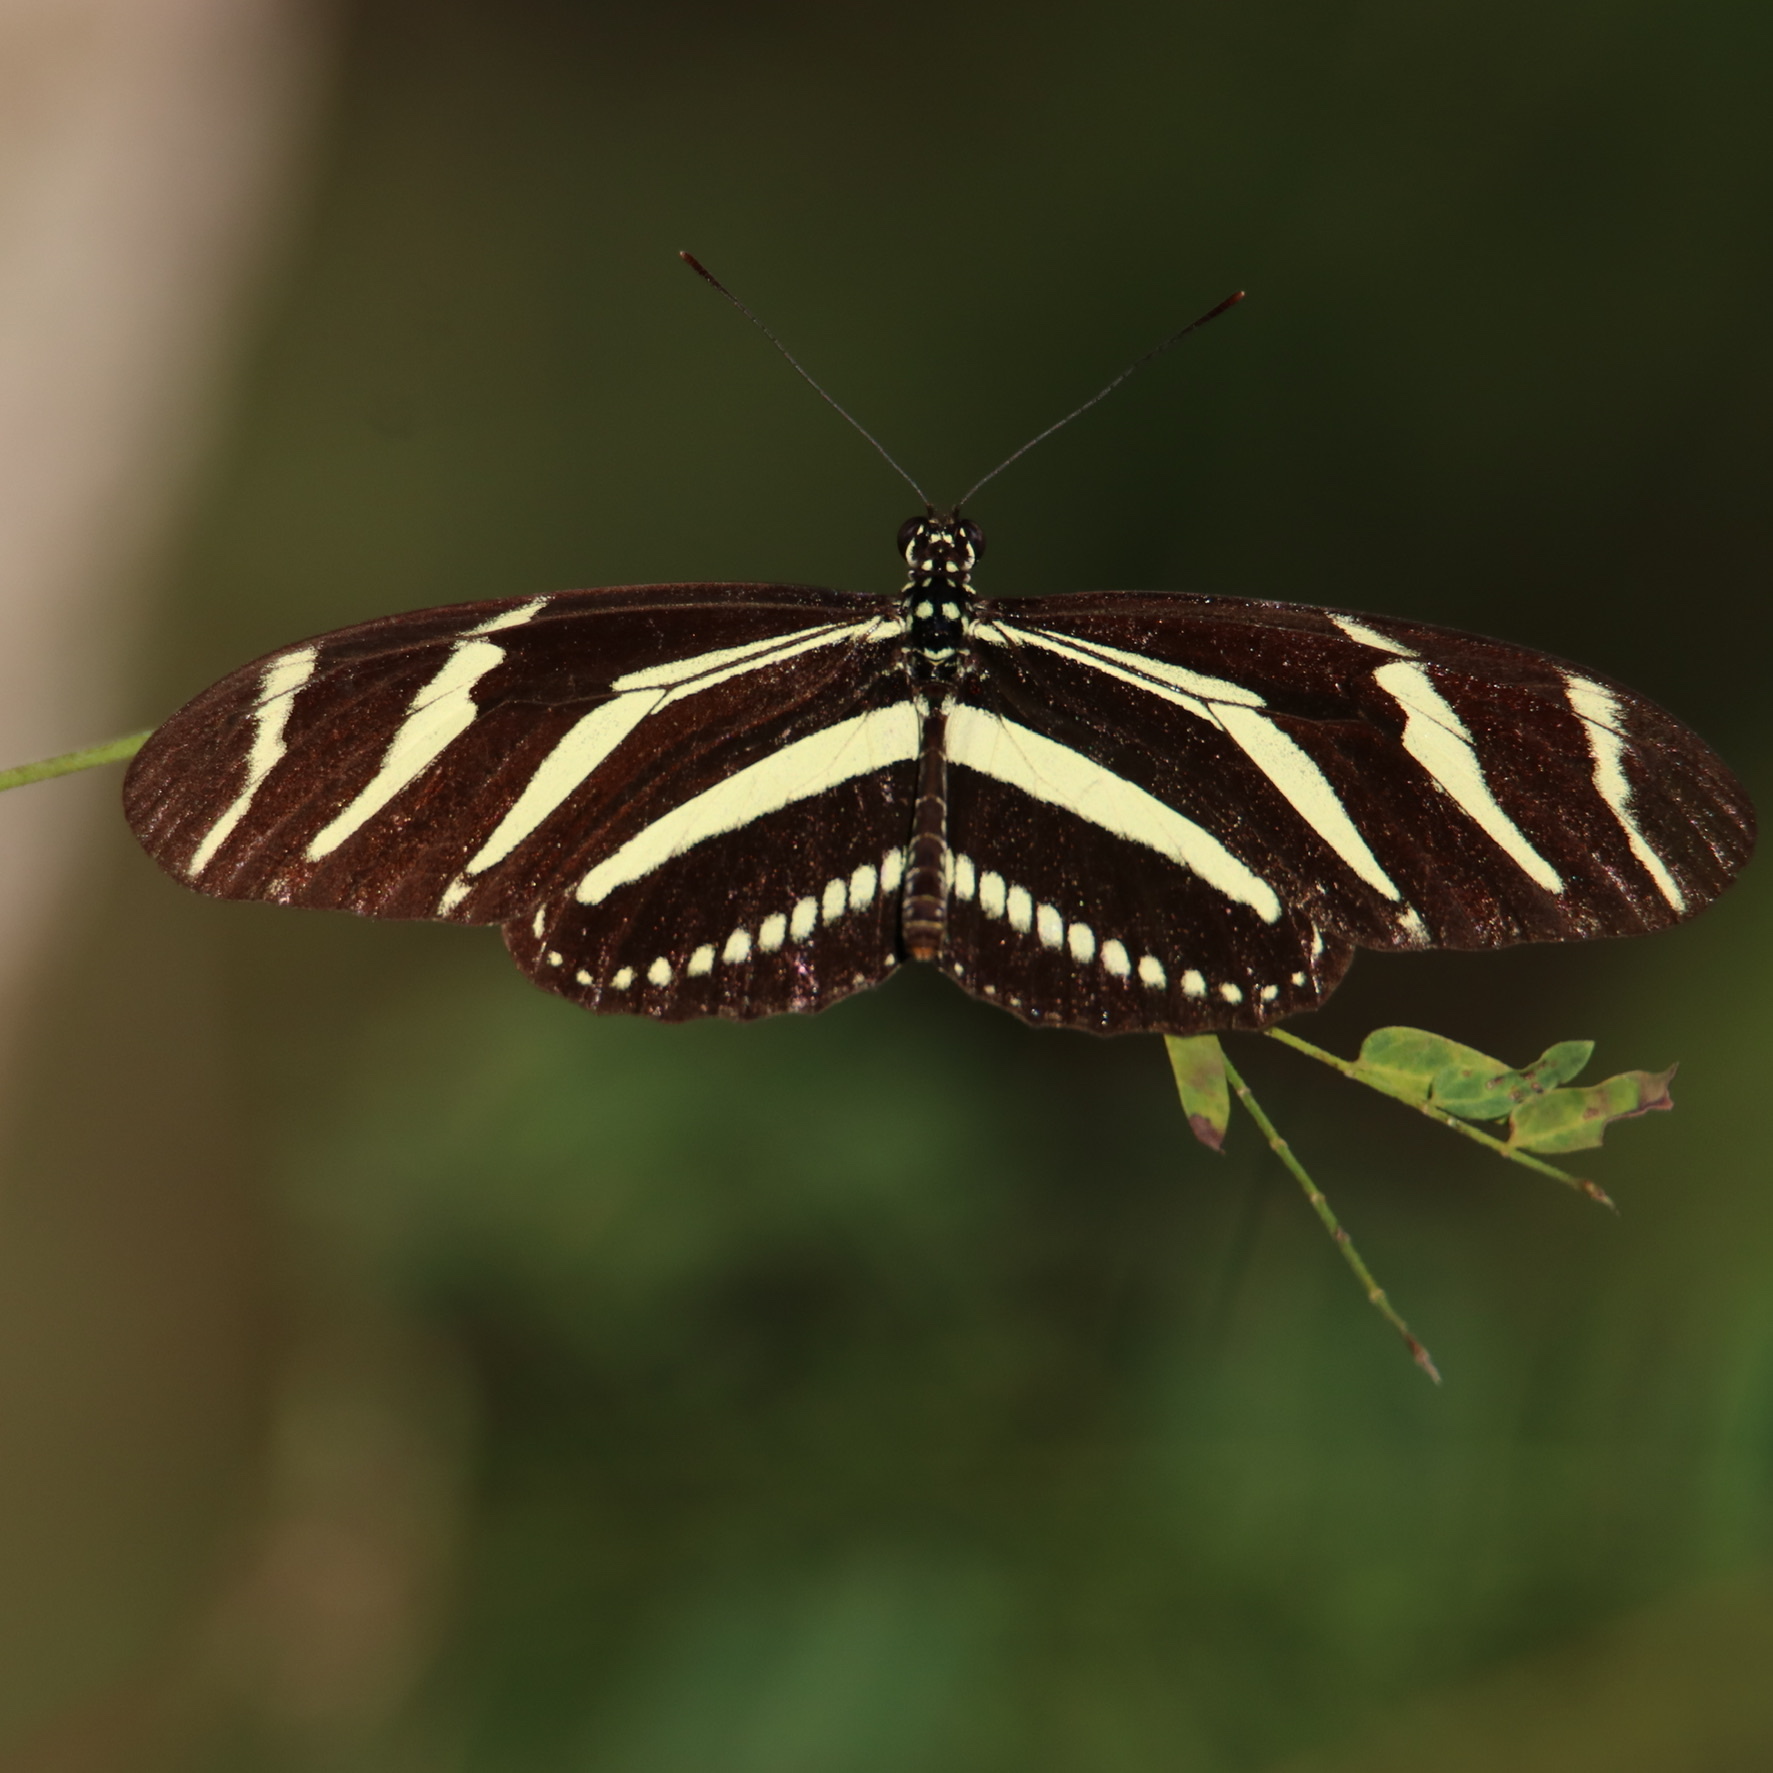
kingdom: Animalia
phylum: Arthropoda
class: Insecta
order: Lepidoptera
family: Nymphalidae
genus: Heliconius
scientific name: Heliconius charithonia
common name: Zebra long wing
